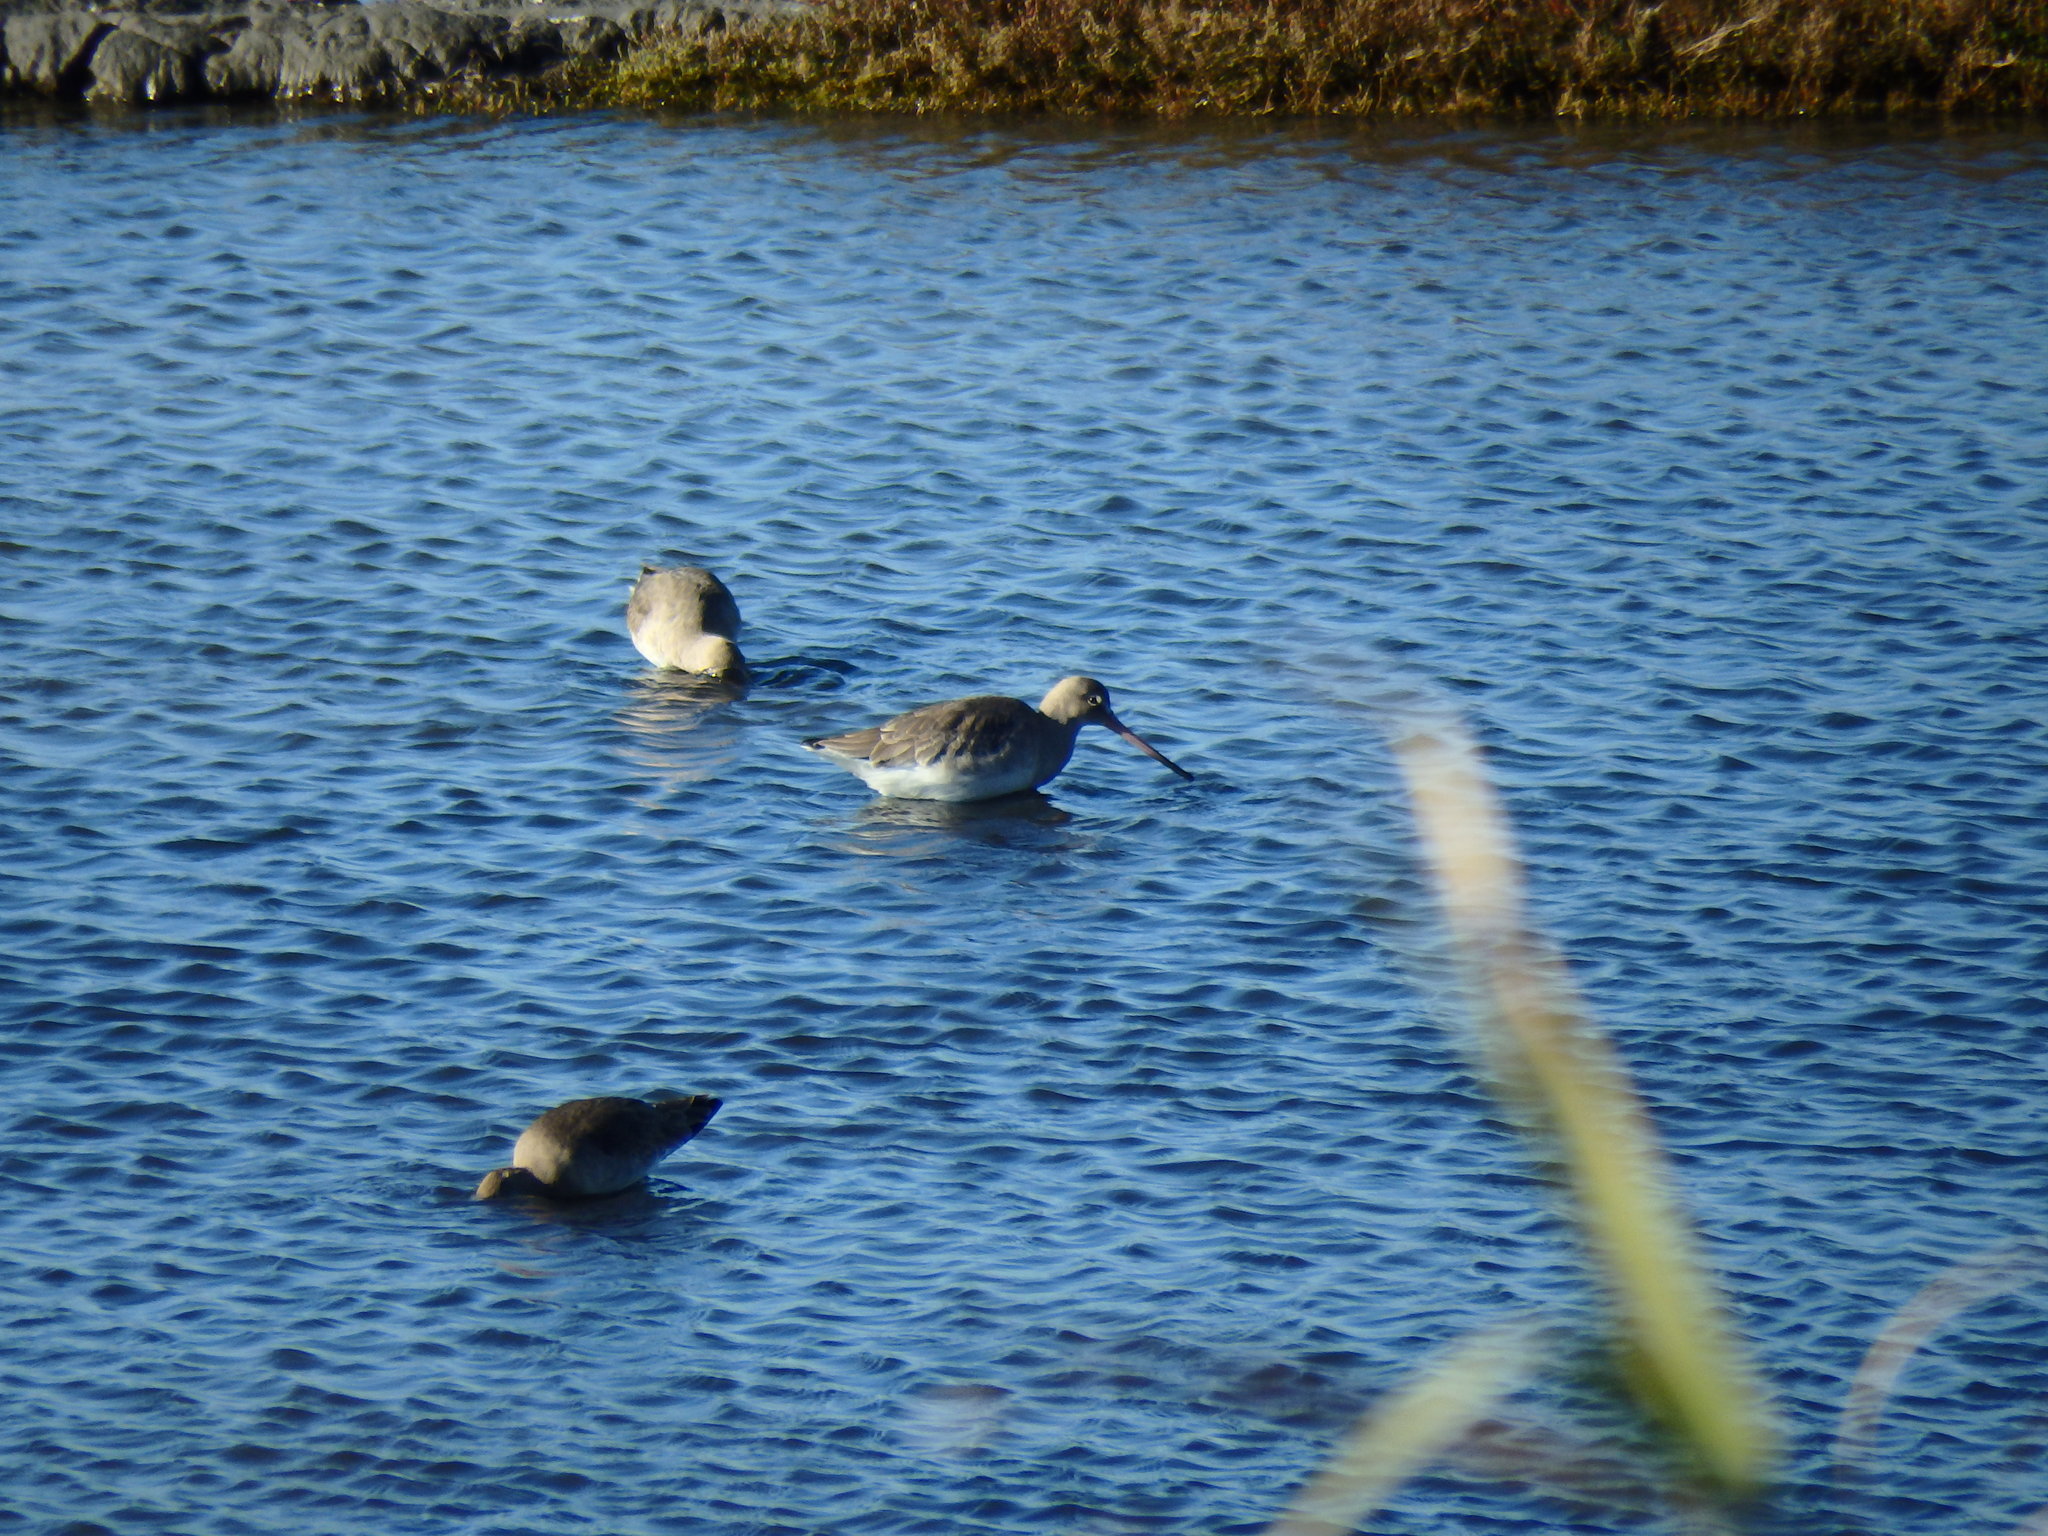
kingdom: Animalia
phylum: Chordata
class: Aves
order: Charadriiformes
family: Scolopacidae
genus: Limosa
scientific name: Limosa limosa
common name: Black-tailed godwit
